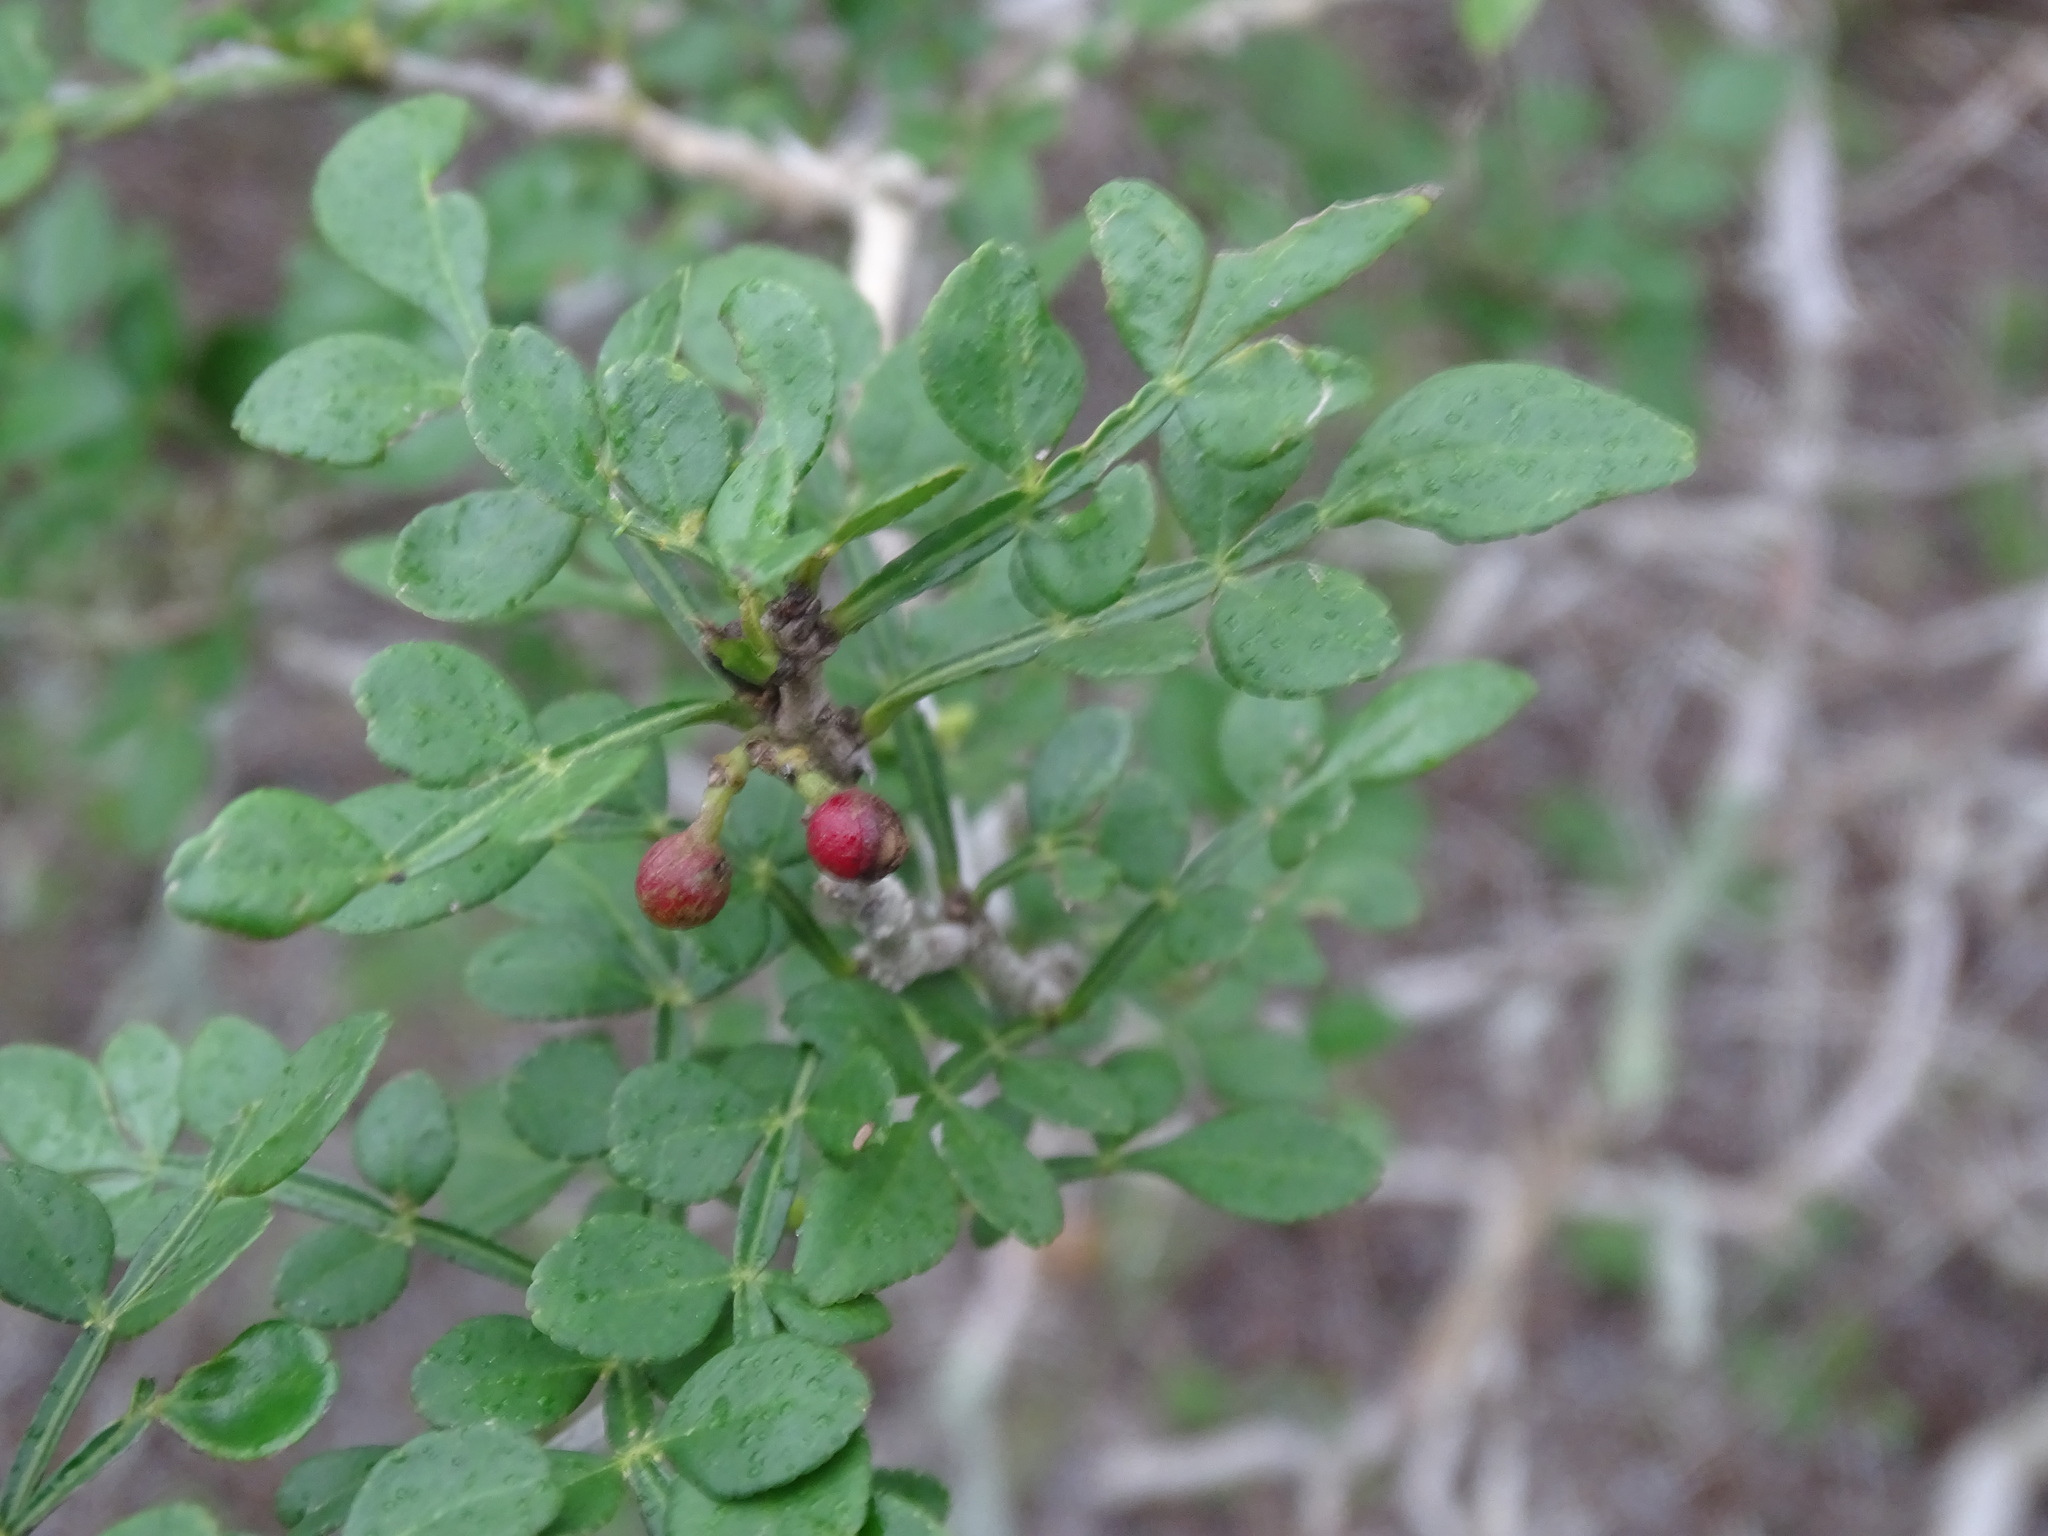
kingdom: Plantae
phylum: Tracheophyta
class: Magnoliopsida
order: Sapindales
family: Rutaceae
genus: Zanthoxylum
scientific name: Zanthoxylum fagara
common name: Lime prickly-ash
